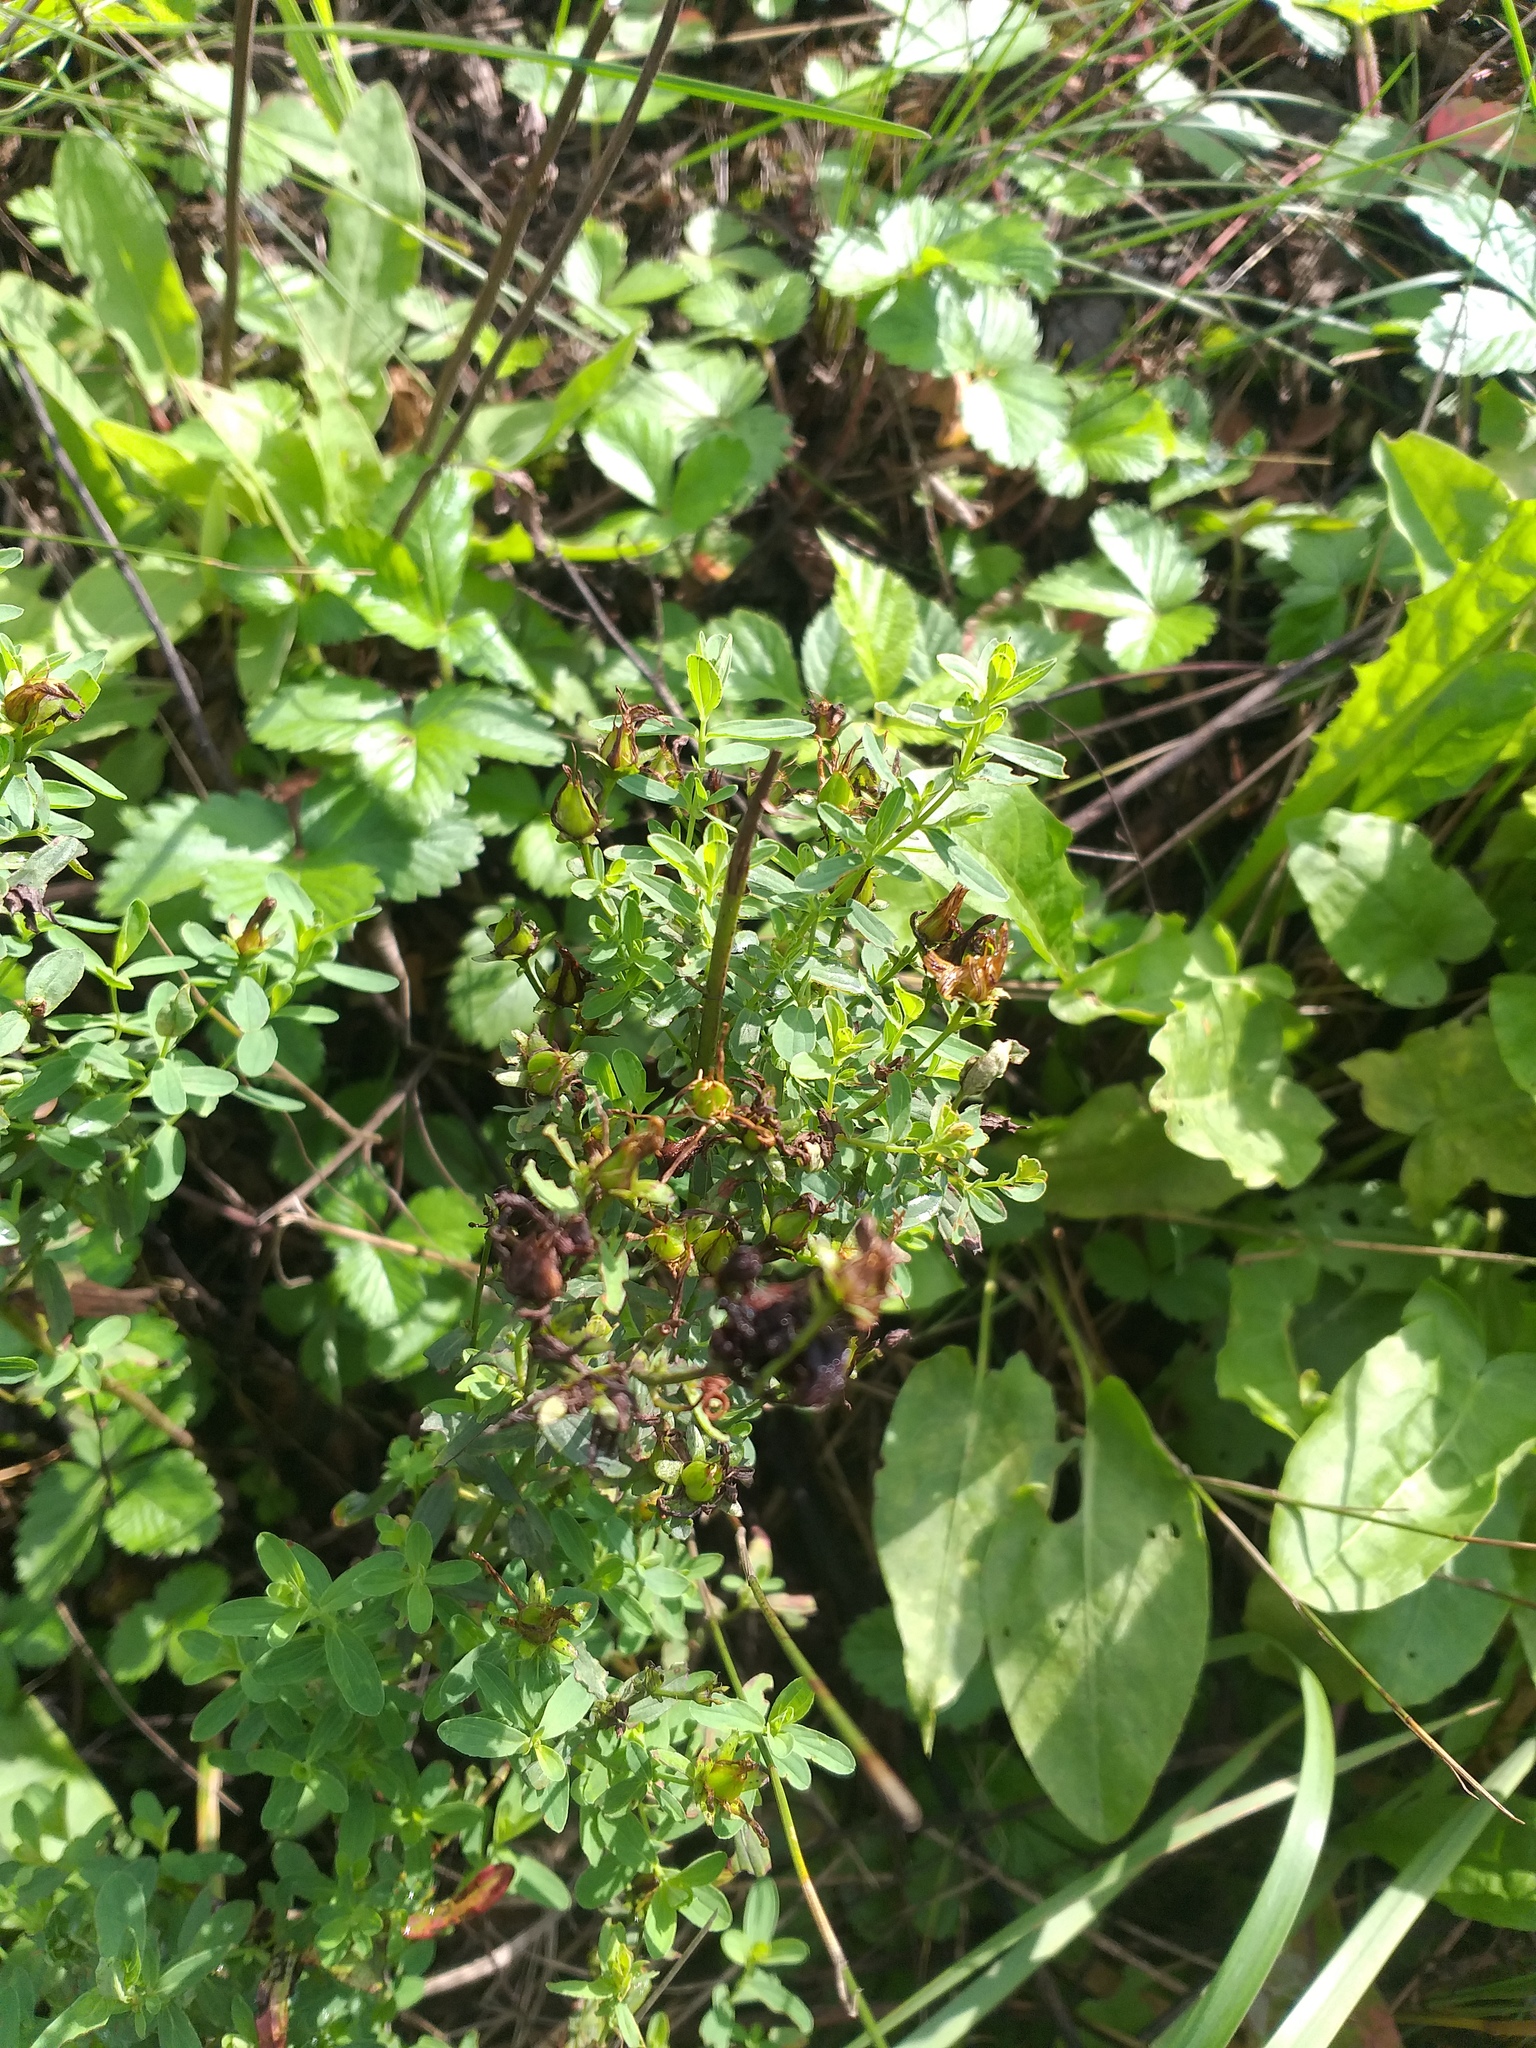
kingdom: Plantae
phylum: Tracheophyta
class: Magnoliopsida
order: Malpighiales
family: Hypericaceae
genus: Hypericum
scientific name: Hypericum perforatum
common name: Common st. johnswort
